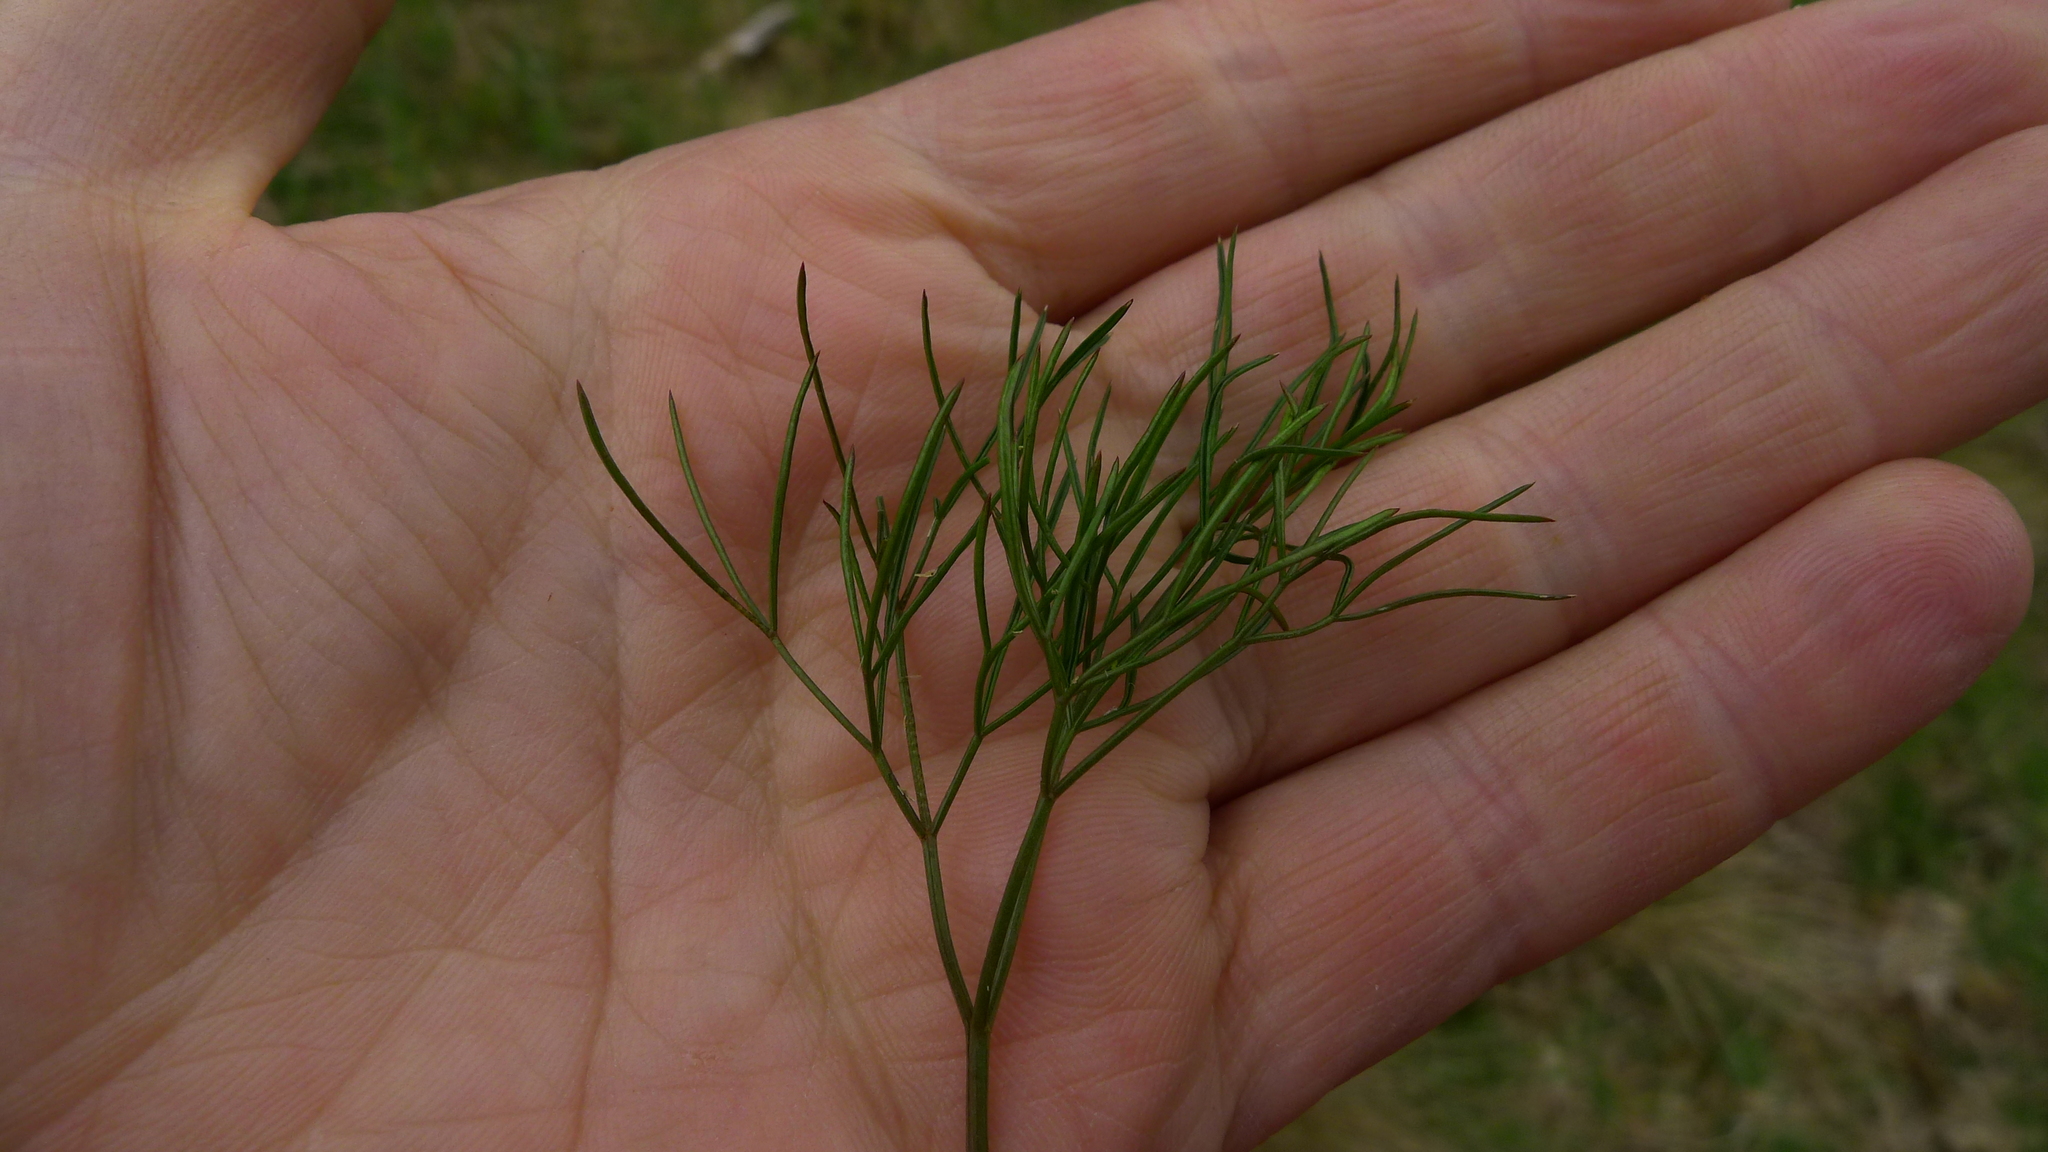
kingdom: Plantae
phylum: Tracheophyta
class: Magnoliopsida
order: Apiales
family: Apiaceae
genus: Anisotome
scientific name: Anisotome filifolia
